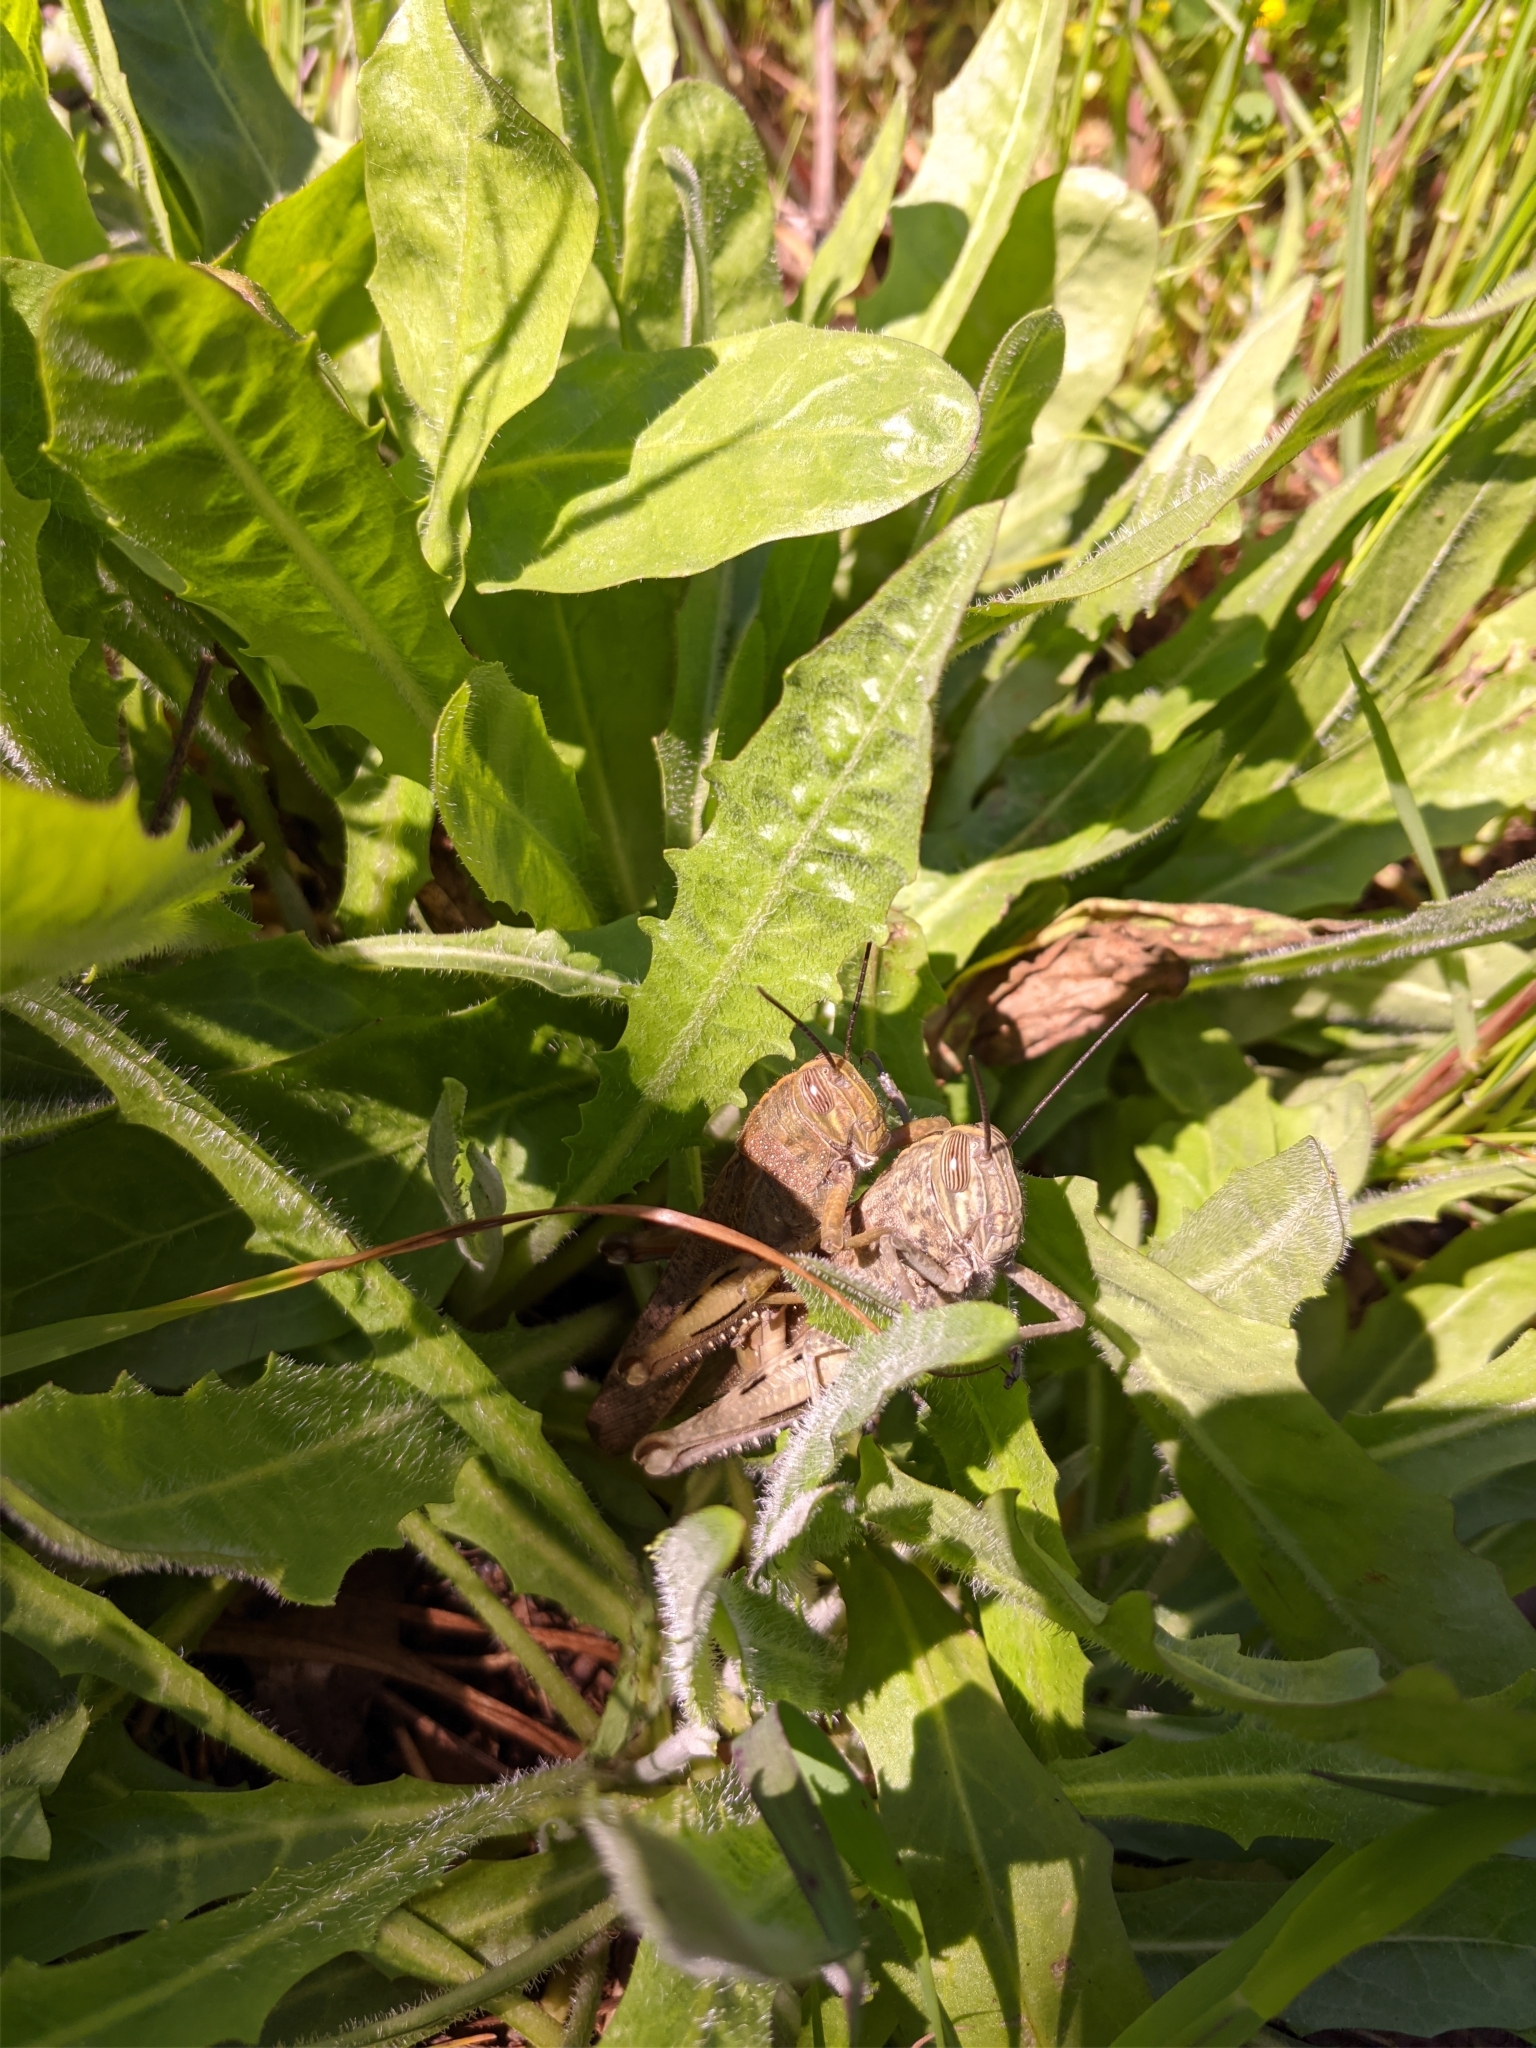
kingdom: Animalia
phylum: Arthropoda
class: Insecta
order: Orthoptera
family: Acrididae
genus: Anacridium
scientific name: Anacridium aegyptium
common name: Egyptian grasshopper
